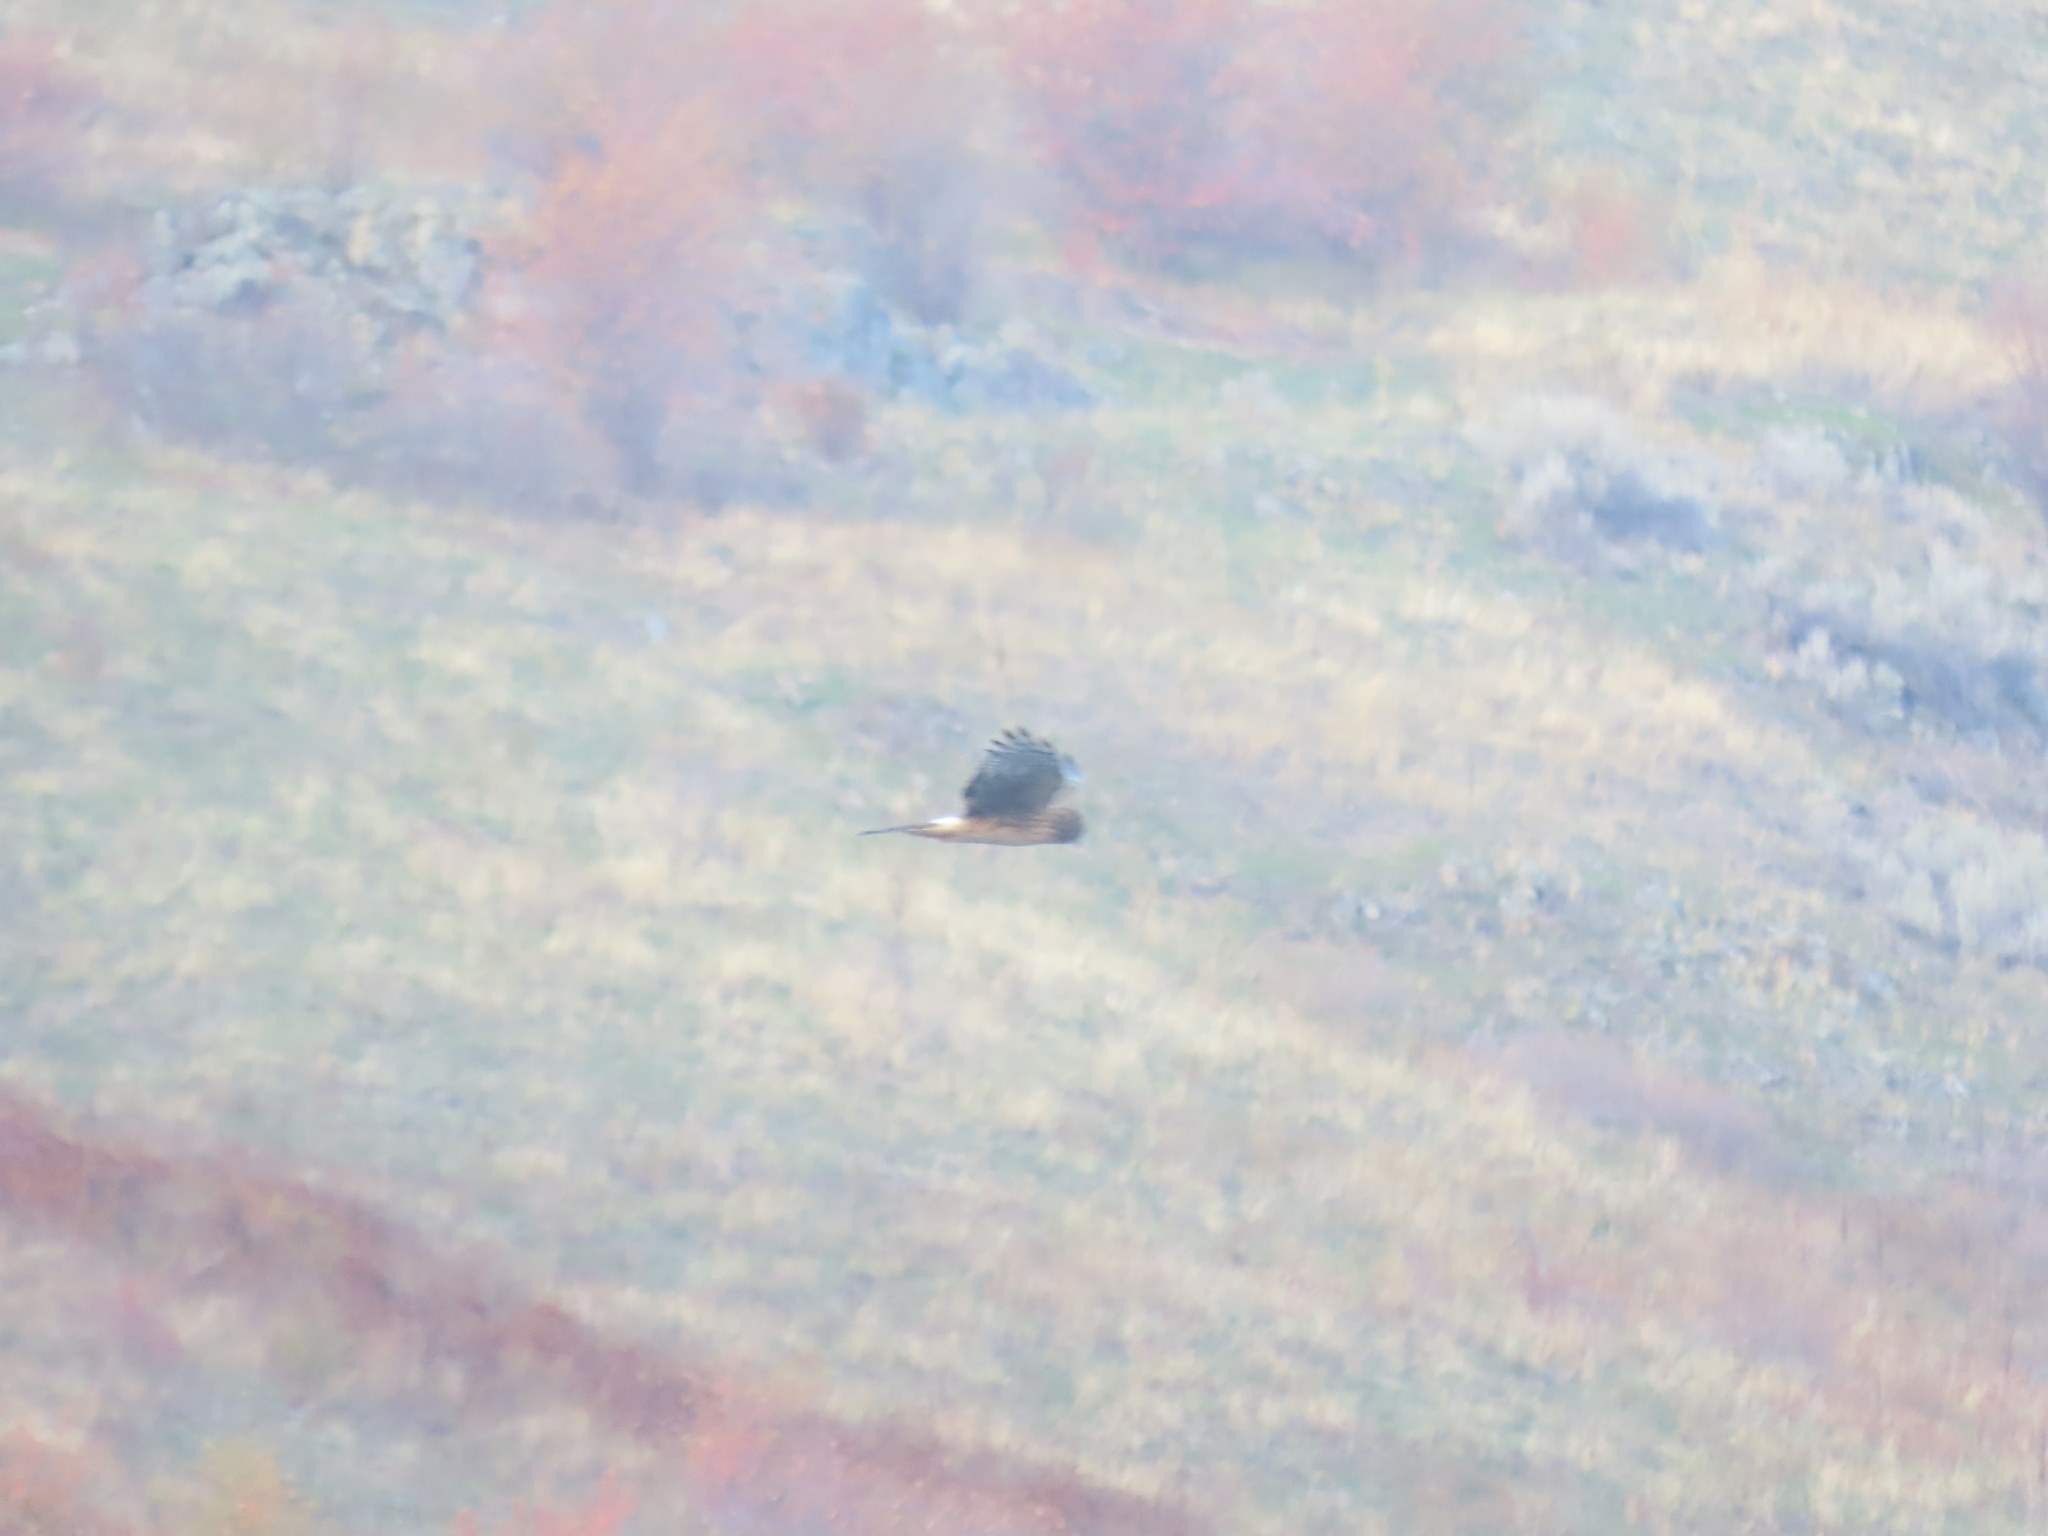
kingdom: Animalia
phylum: Chordata
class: Aves
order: Accipitriformes
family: Accipitridae
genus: Circus
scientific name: Circus cyaneus
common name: Hen harrier
